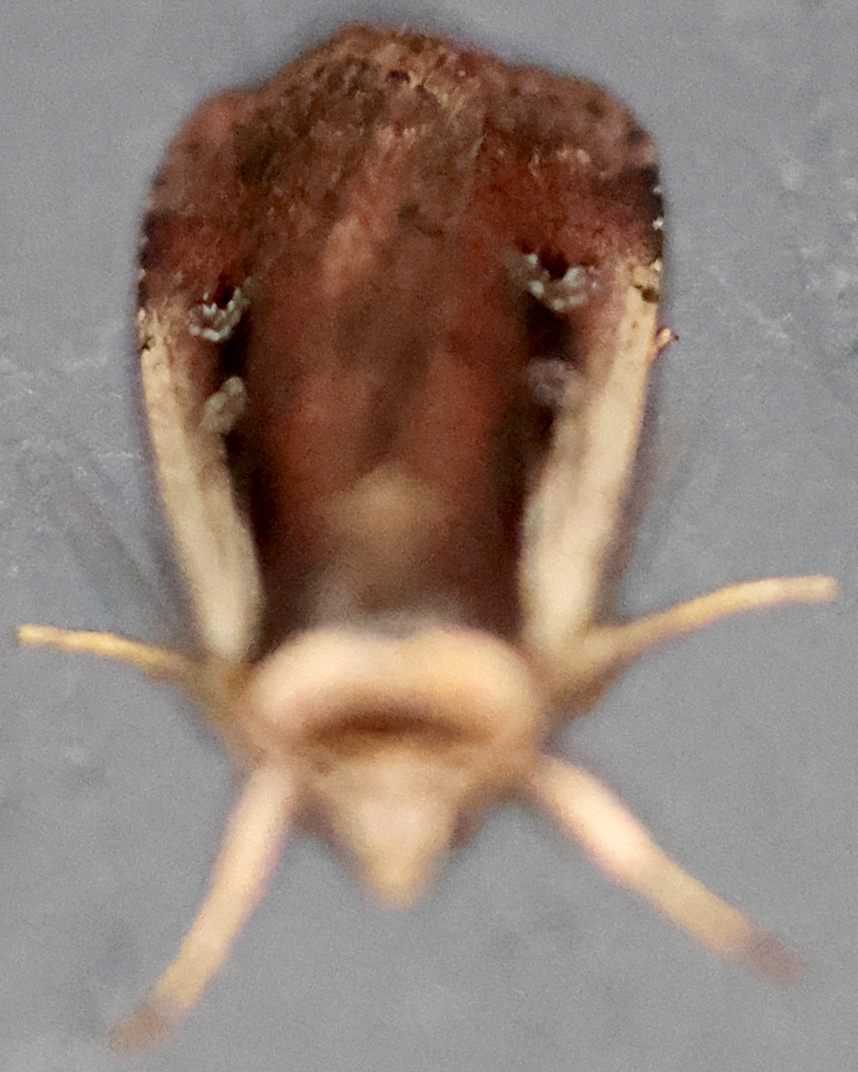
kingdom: Animalia
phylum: Arthropoda
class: Insecta
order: Lepidoptera
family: Noctuidae
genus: Ochropleura
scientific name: Ochropleura implecta
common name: Flame-shouldered dart
